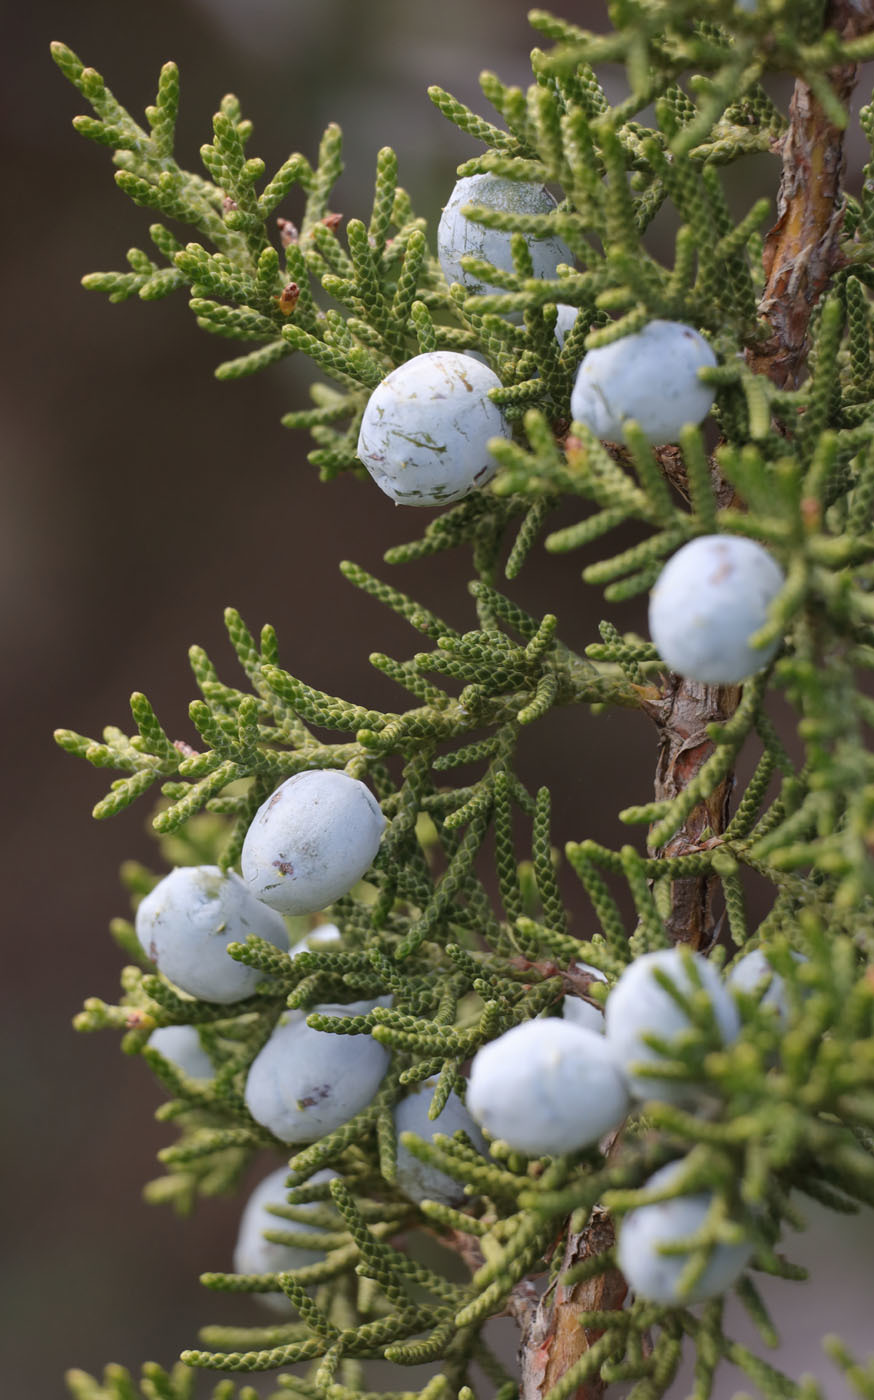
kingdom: Plantae
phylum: Tracheophyta
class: Pinopsida
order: Pinales
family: Cupressaceae
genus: Juniperus
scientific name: Juniperus californica
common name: California juniper
